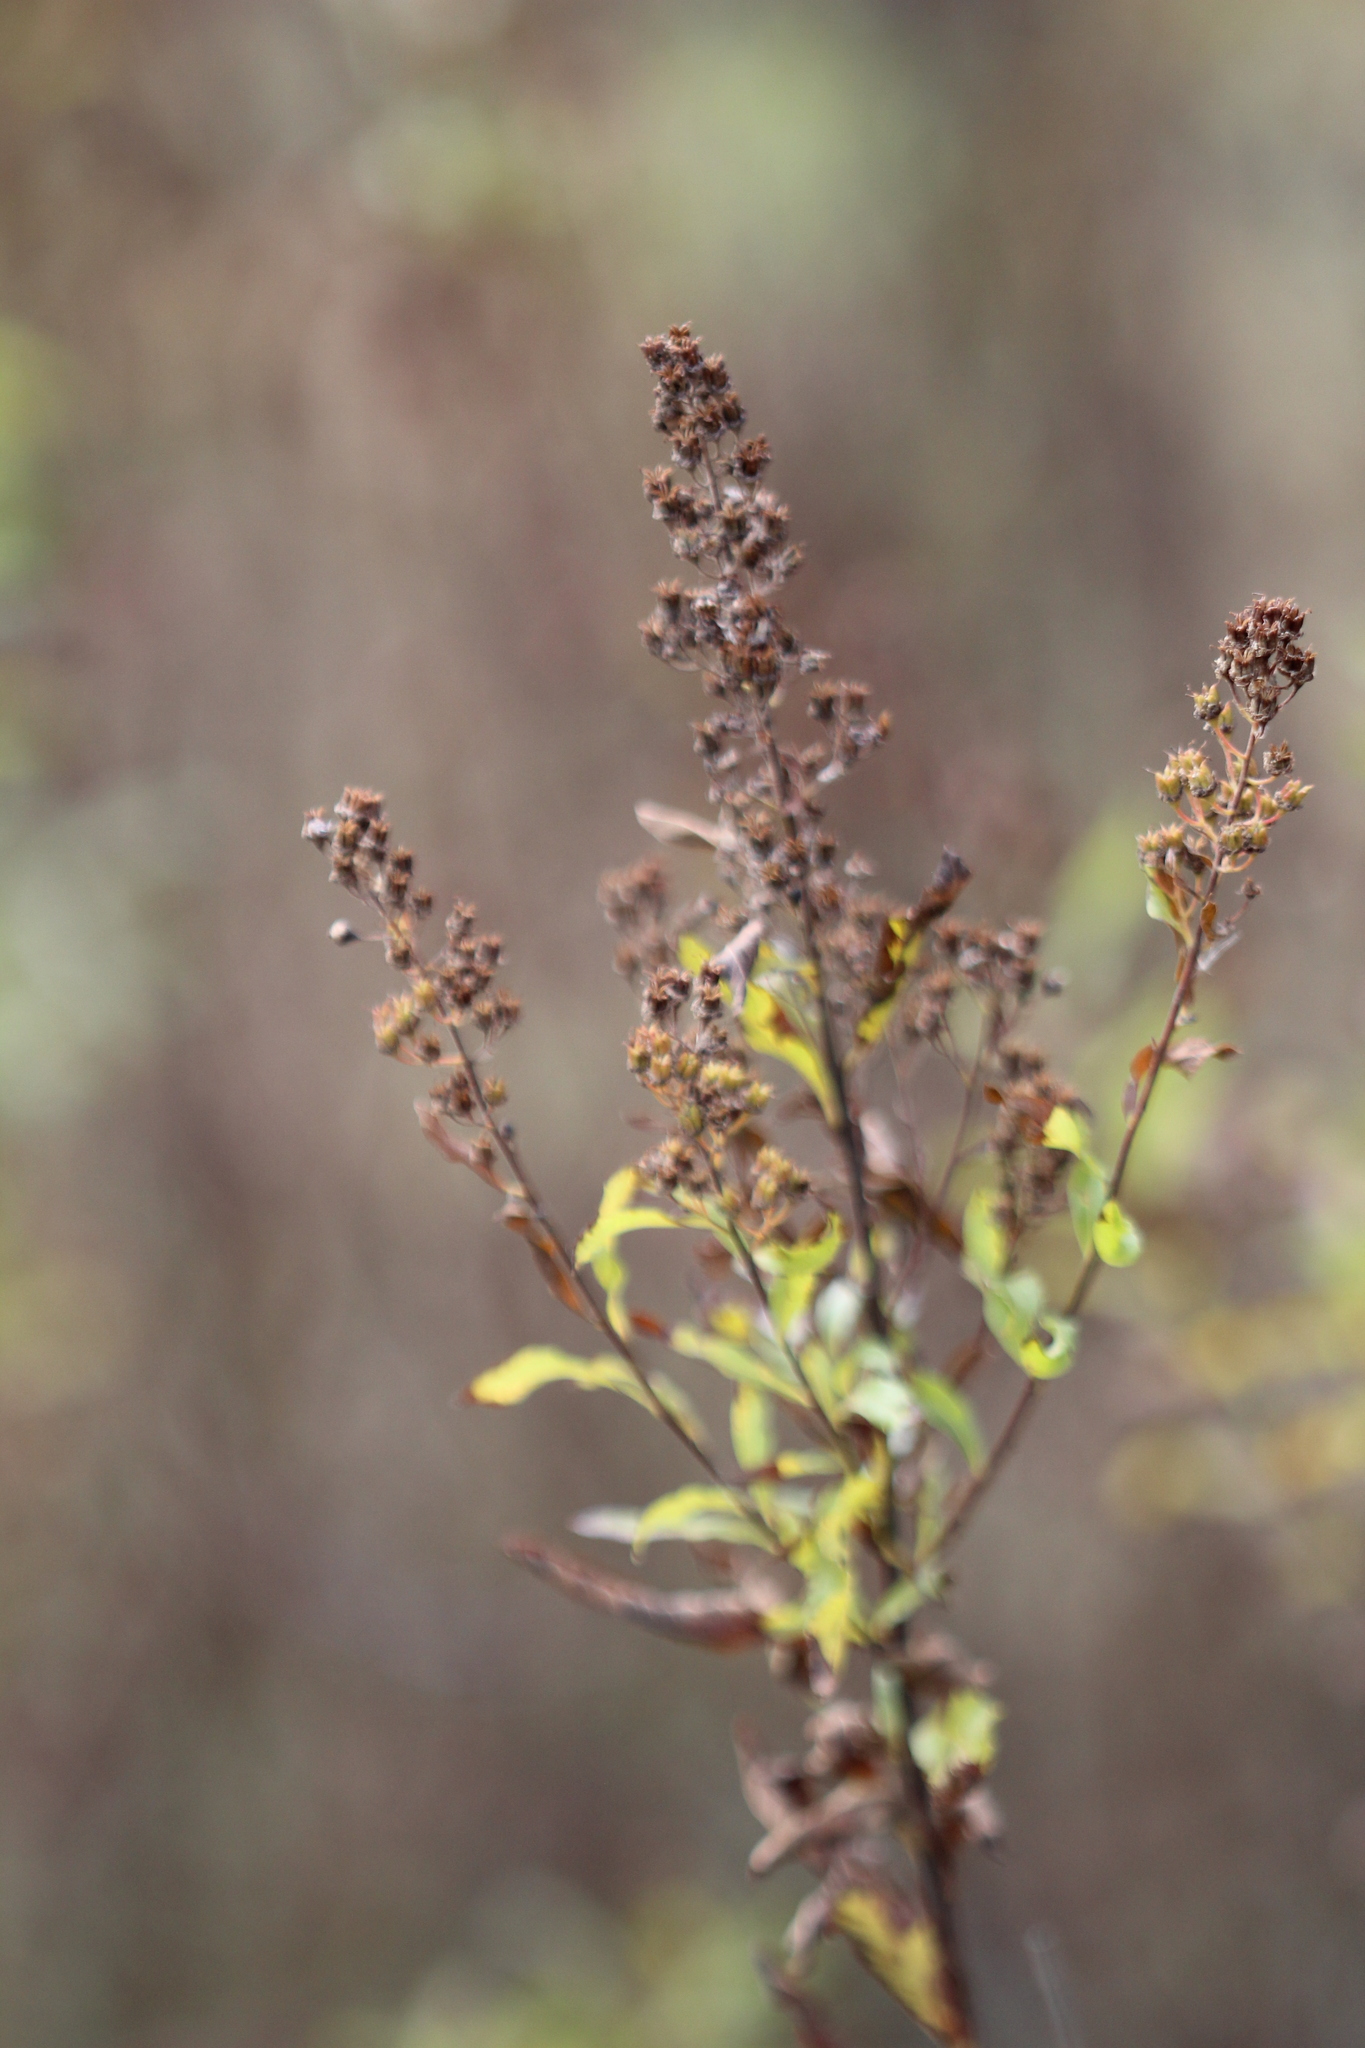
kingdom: Plantae
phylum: Tracheophyta
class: Magnoliopsida
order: Rosales
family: Rosaceae
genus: Spiraea
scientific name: Spiraea alba
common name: Pale bridewort
